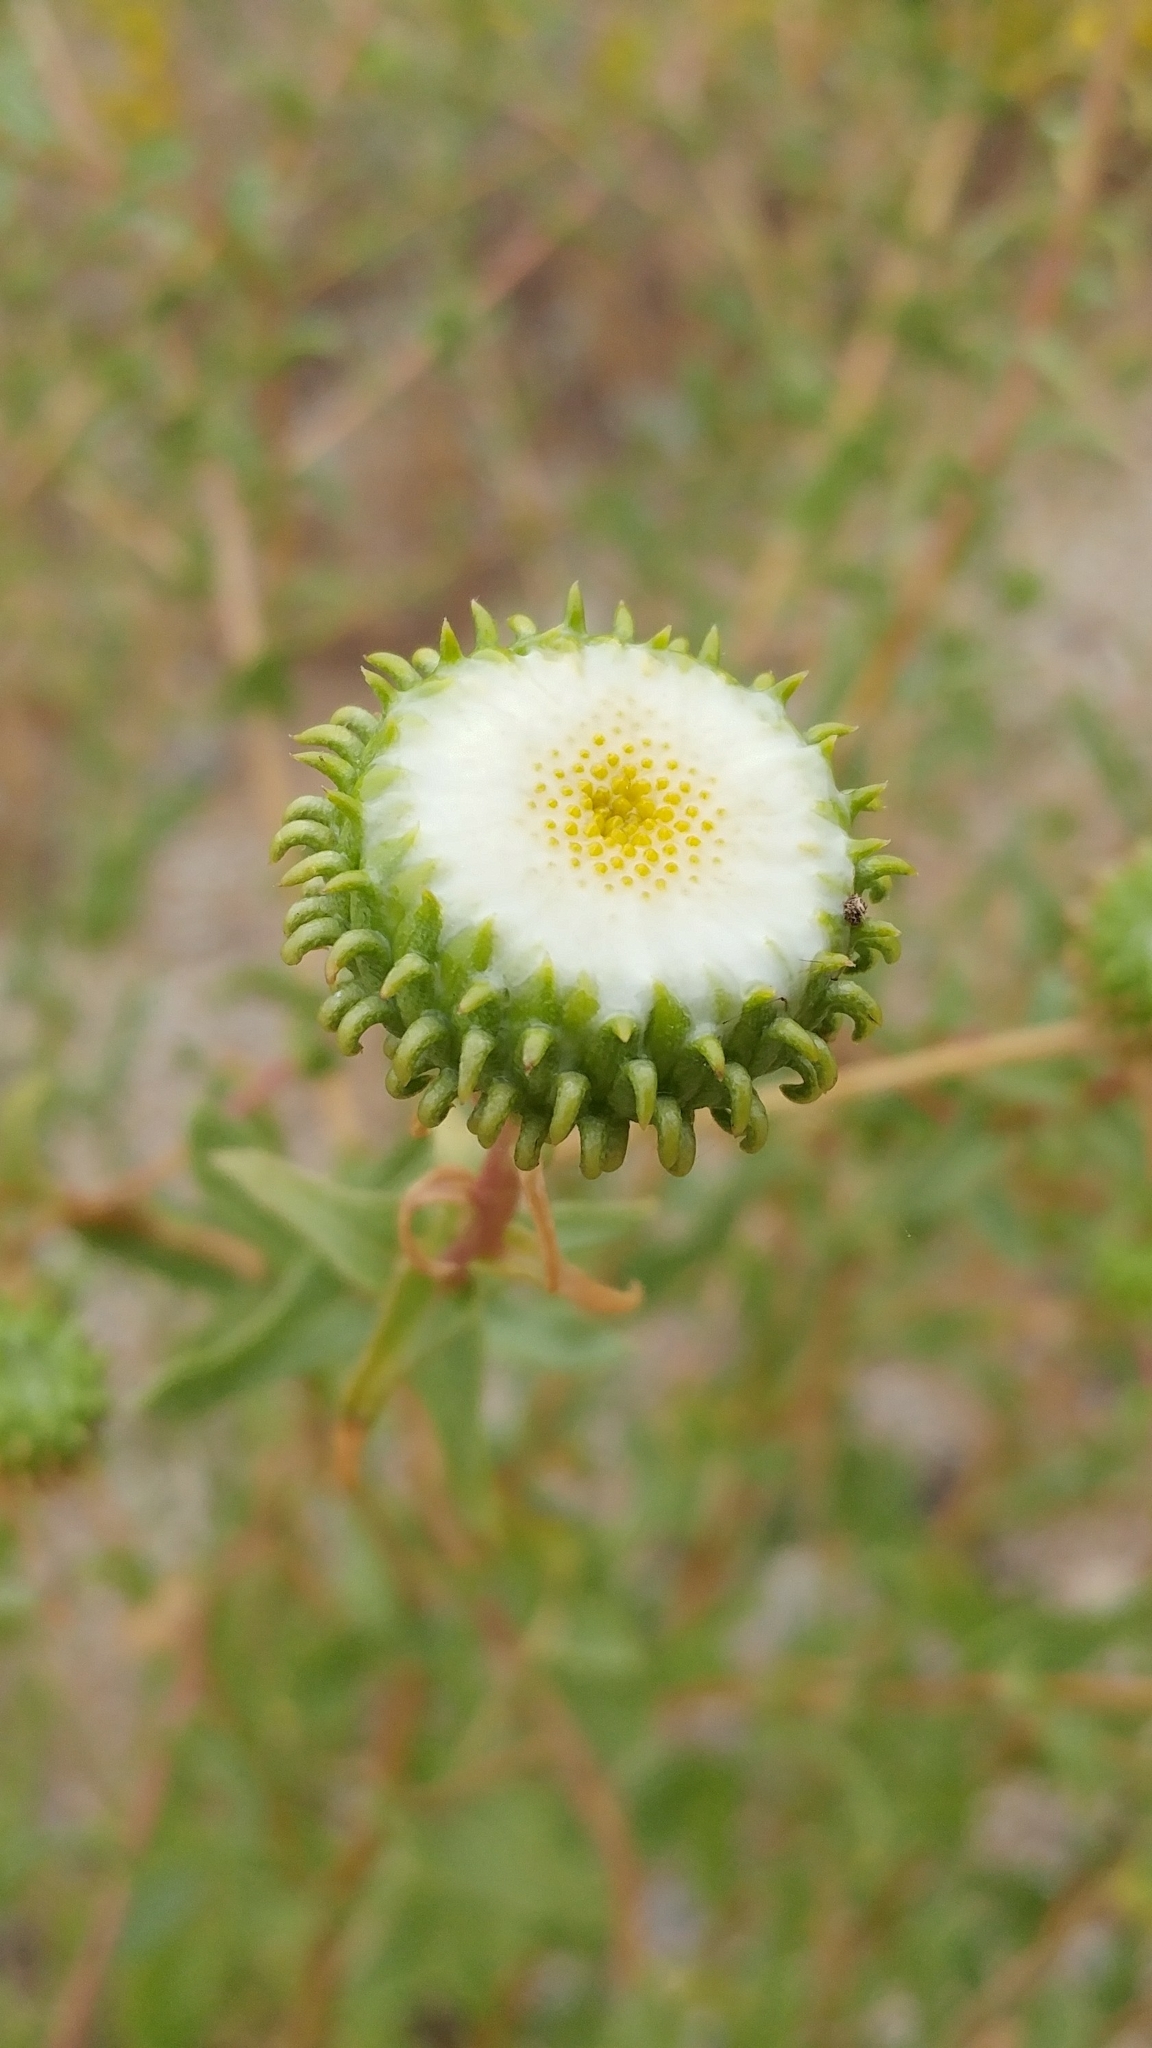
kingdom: Plantae
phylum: Tracheophyta
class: Magnoliopsida
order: Asterales
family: Asteraceae
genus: Grindelia
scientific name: Grindelia hirsutula
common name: Hairy gumweed
